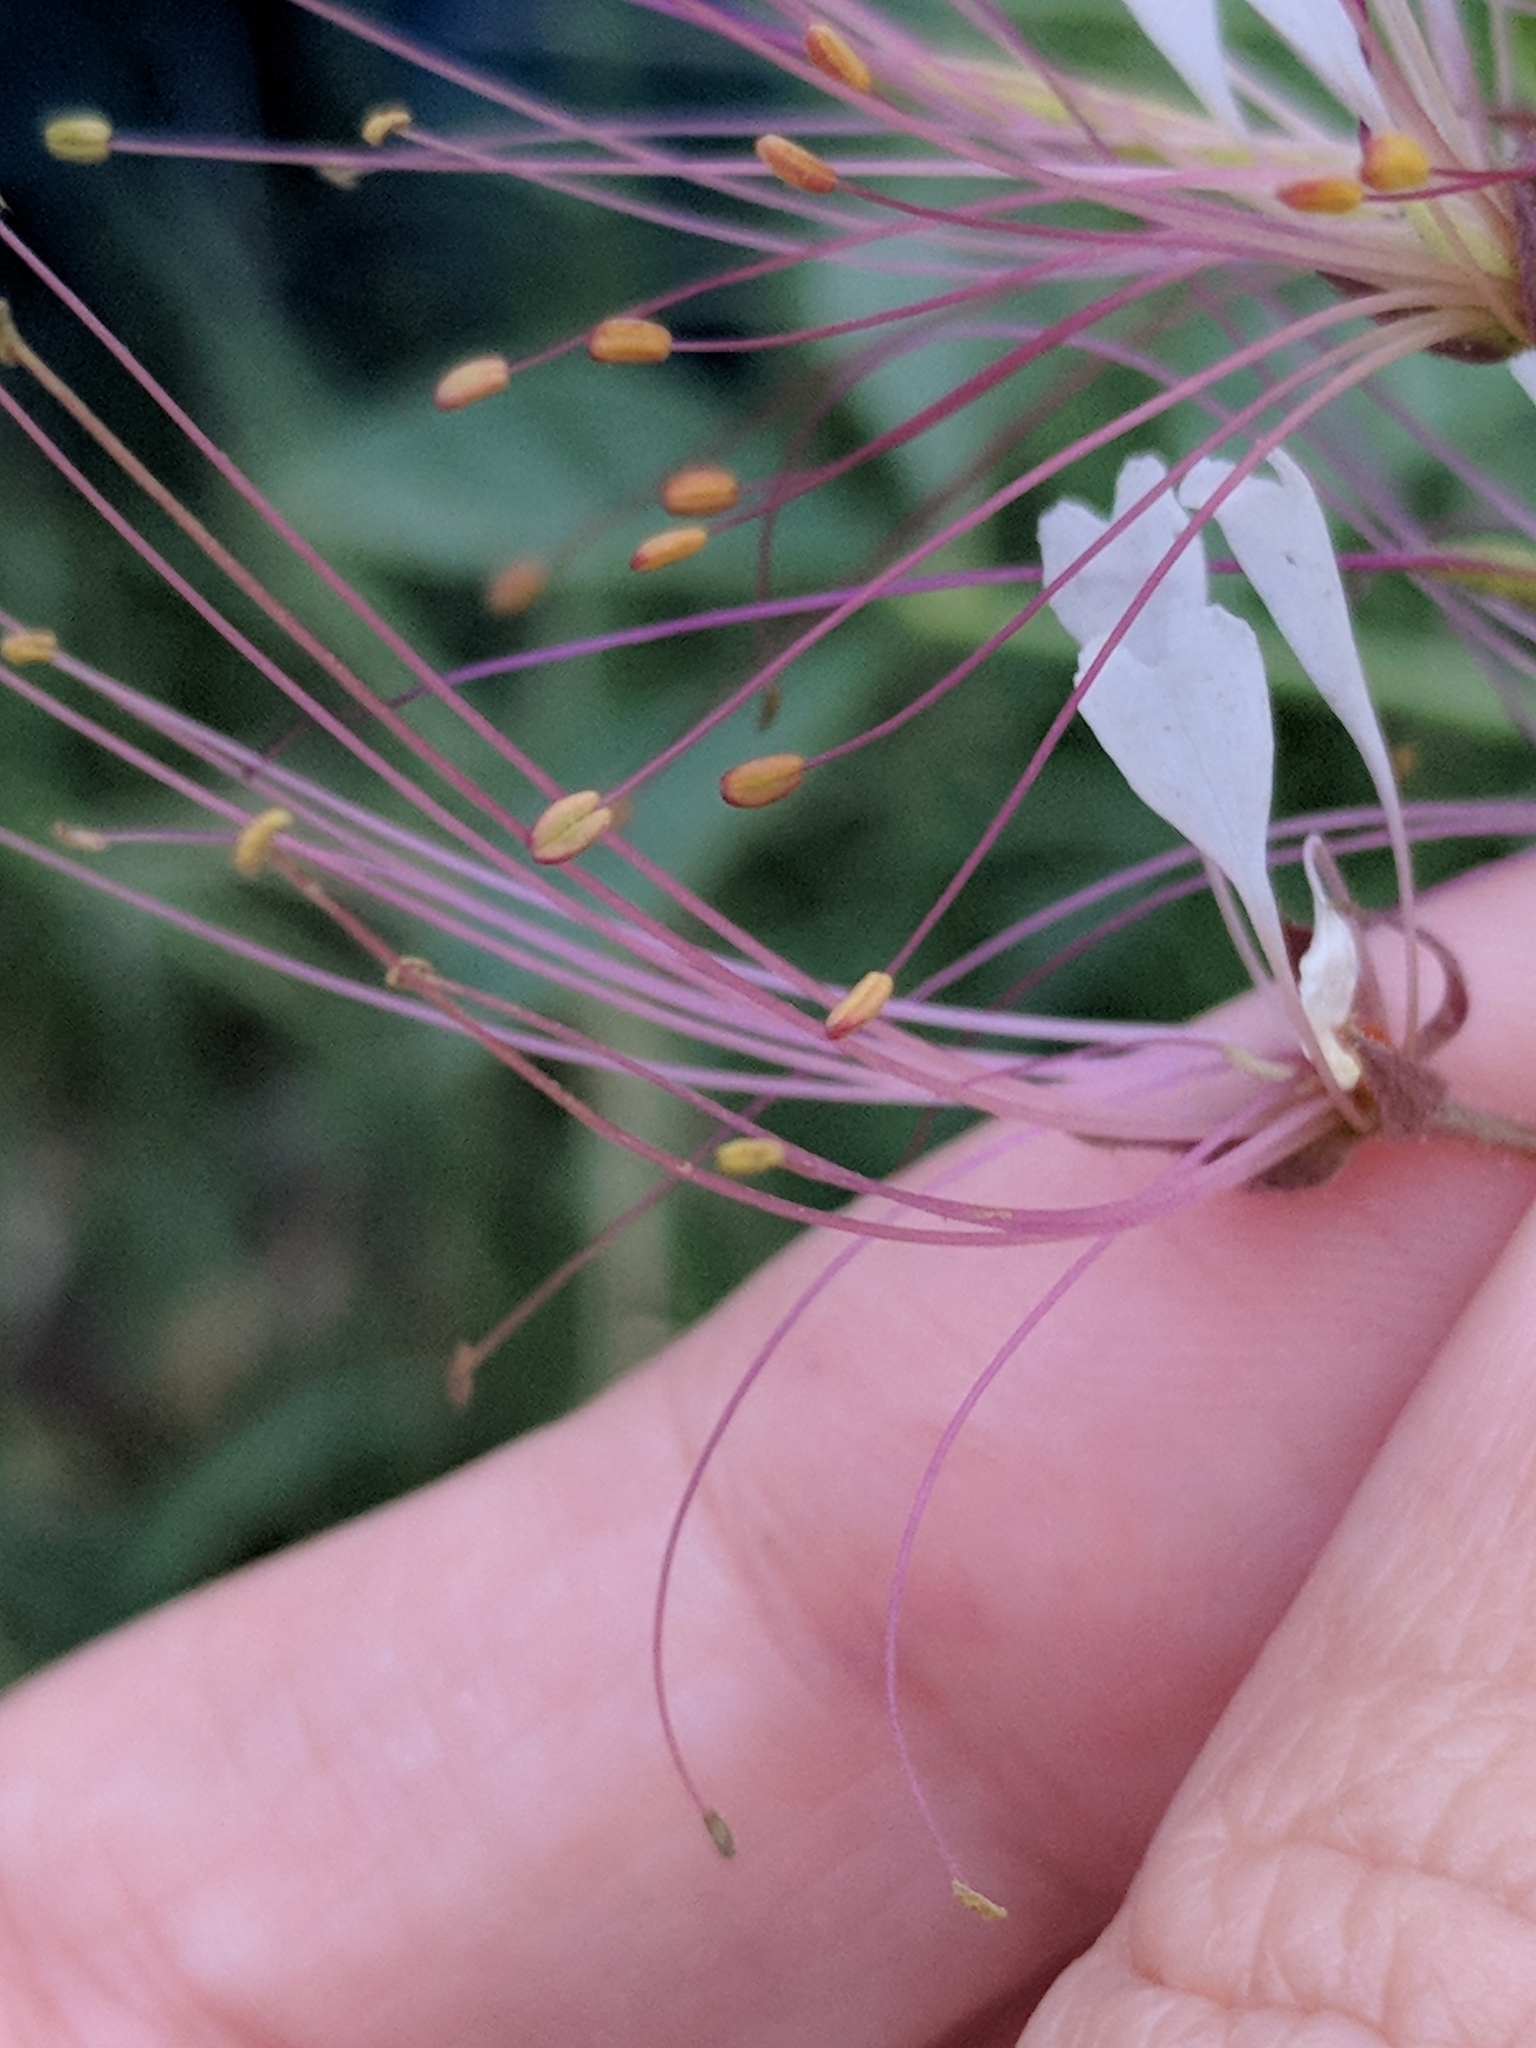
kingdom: Plantae
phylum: Tracheophyta
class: Magnoliopsida
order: Brassicales
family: Cleomaceae
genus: Polanisia
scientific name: Polanisia dodecandra
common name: Clammyweed
